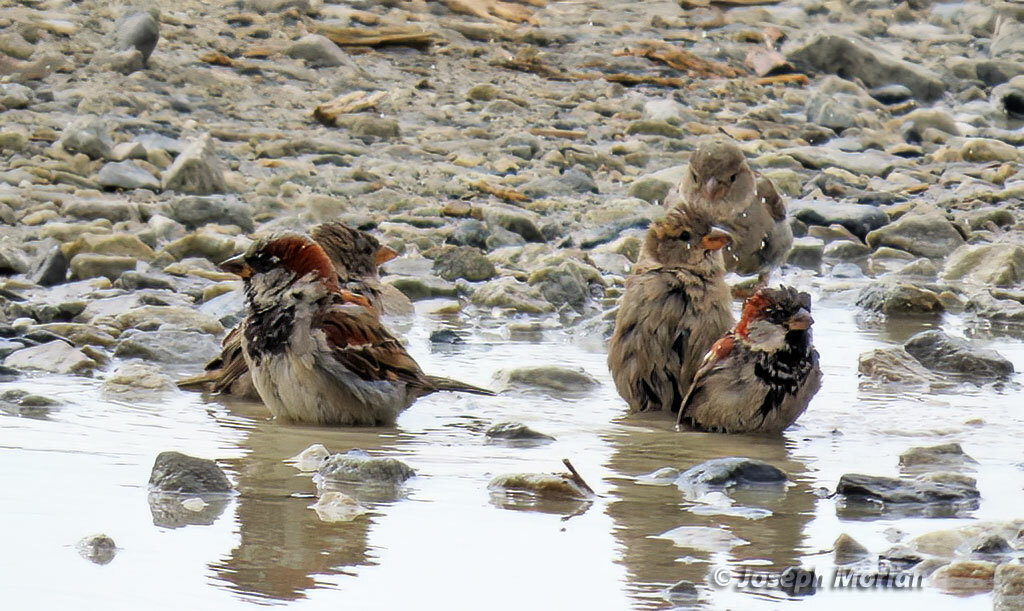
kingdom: Animalia
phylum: Chordata
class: Aves
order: Passeriformes
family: Passeridae
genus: Passer
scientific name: Passer domesticus
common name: House sparrow
